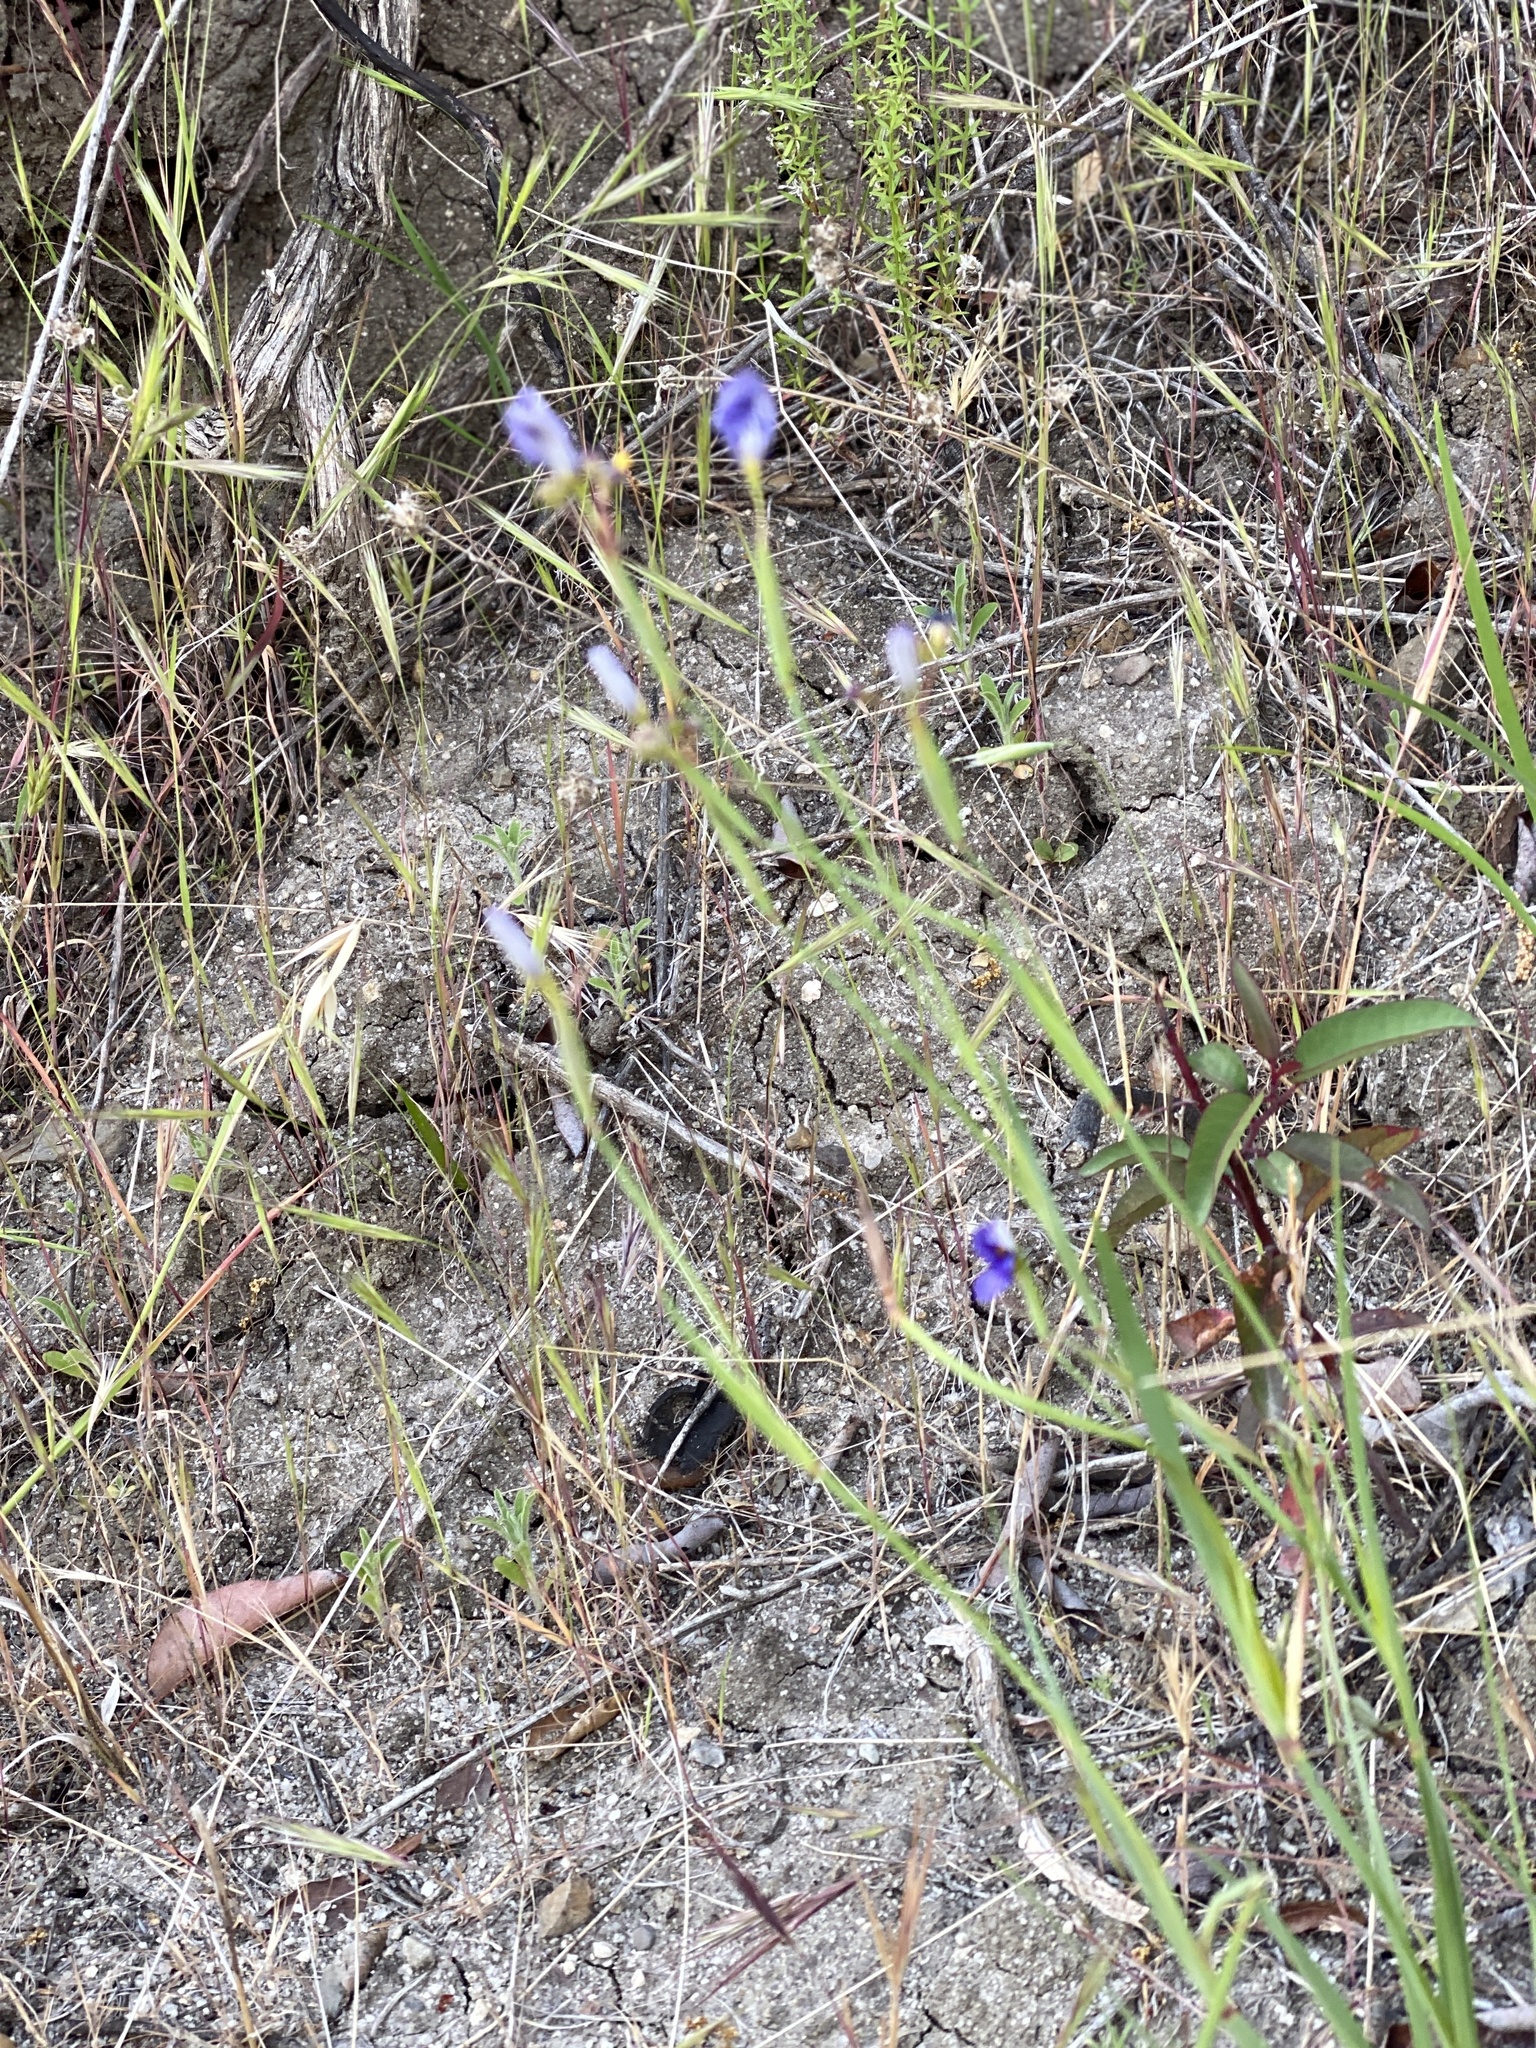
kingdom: Plantae
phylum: Tracheophyta
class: Liliopsida
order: Asparagales
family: Iridaceae
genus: Sisyrinchium
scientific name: Sisyrinchium bellum
